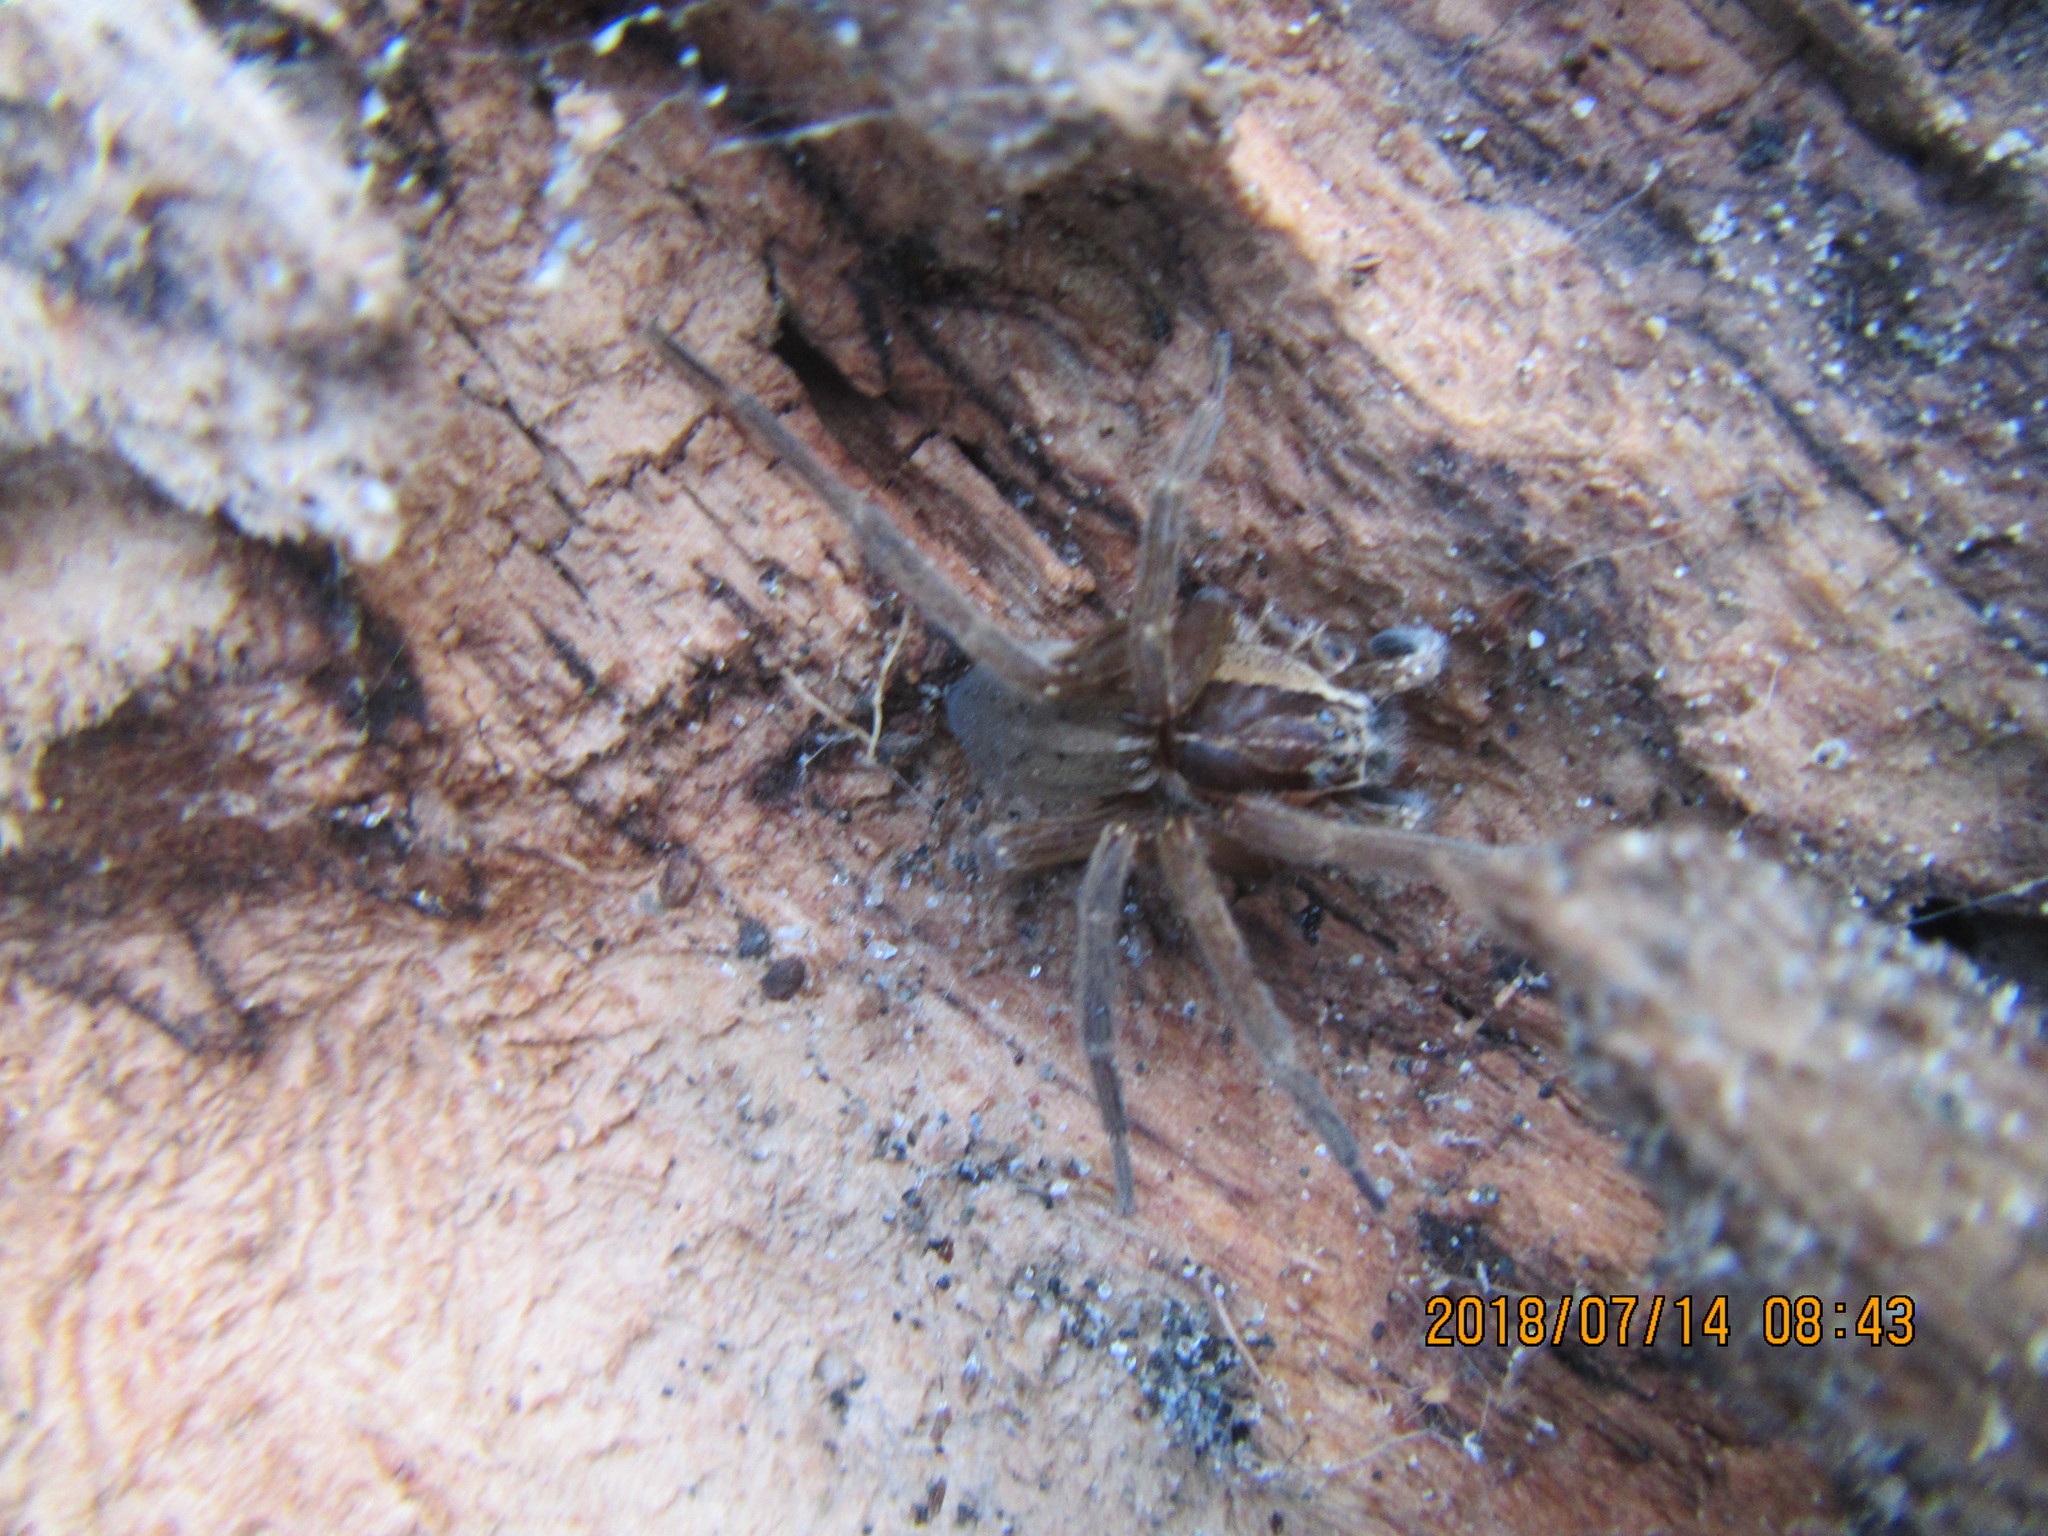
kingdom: Animalia
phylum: Arthropoda
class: Arachnida
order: Araneae
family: Pisauridae
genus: Dolomedes
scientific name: Dolomedes minor
